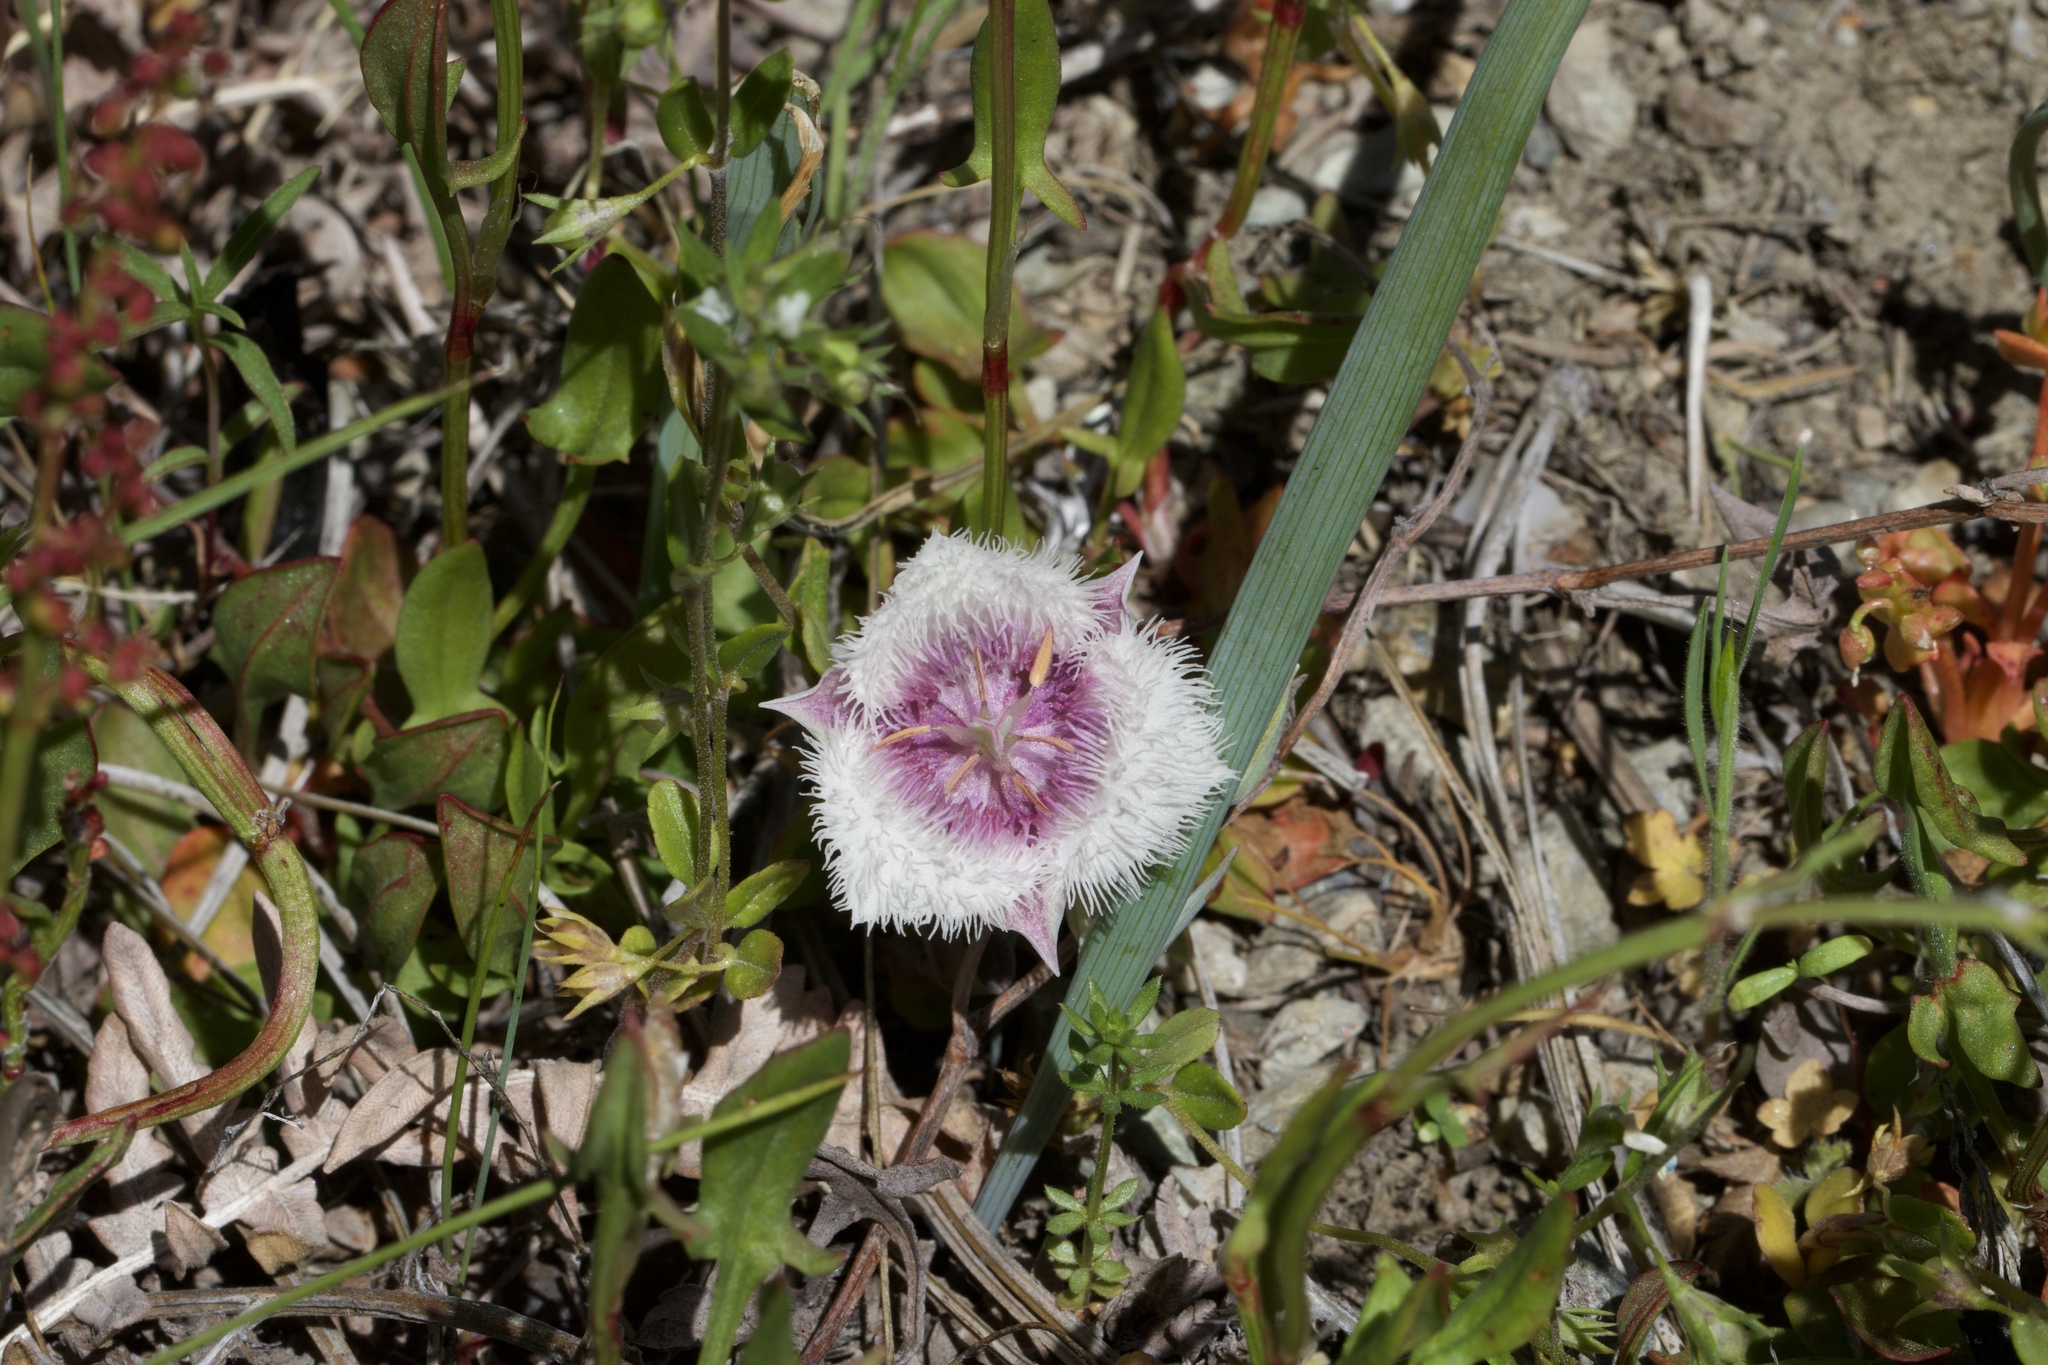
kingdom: Plantae
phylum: Tracheophyta
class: Liliopsida
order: Liliales
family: Liliaceae
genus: Calochortus
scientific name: Calochortus coeruleus
